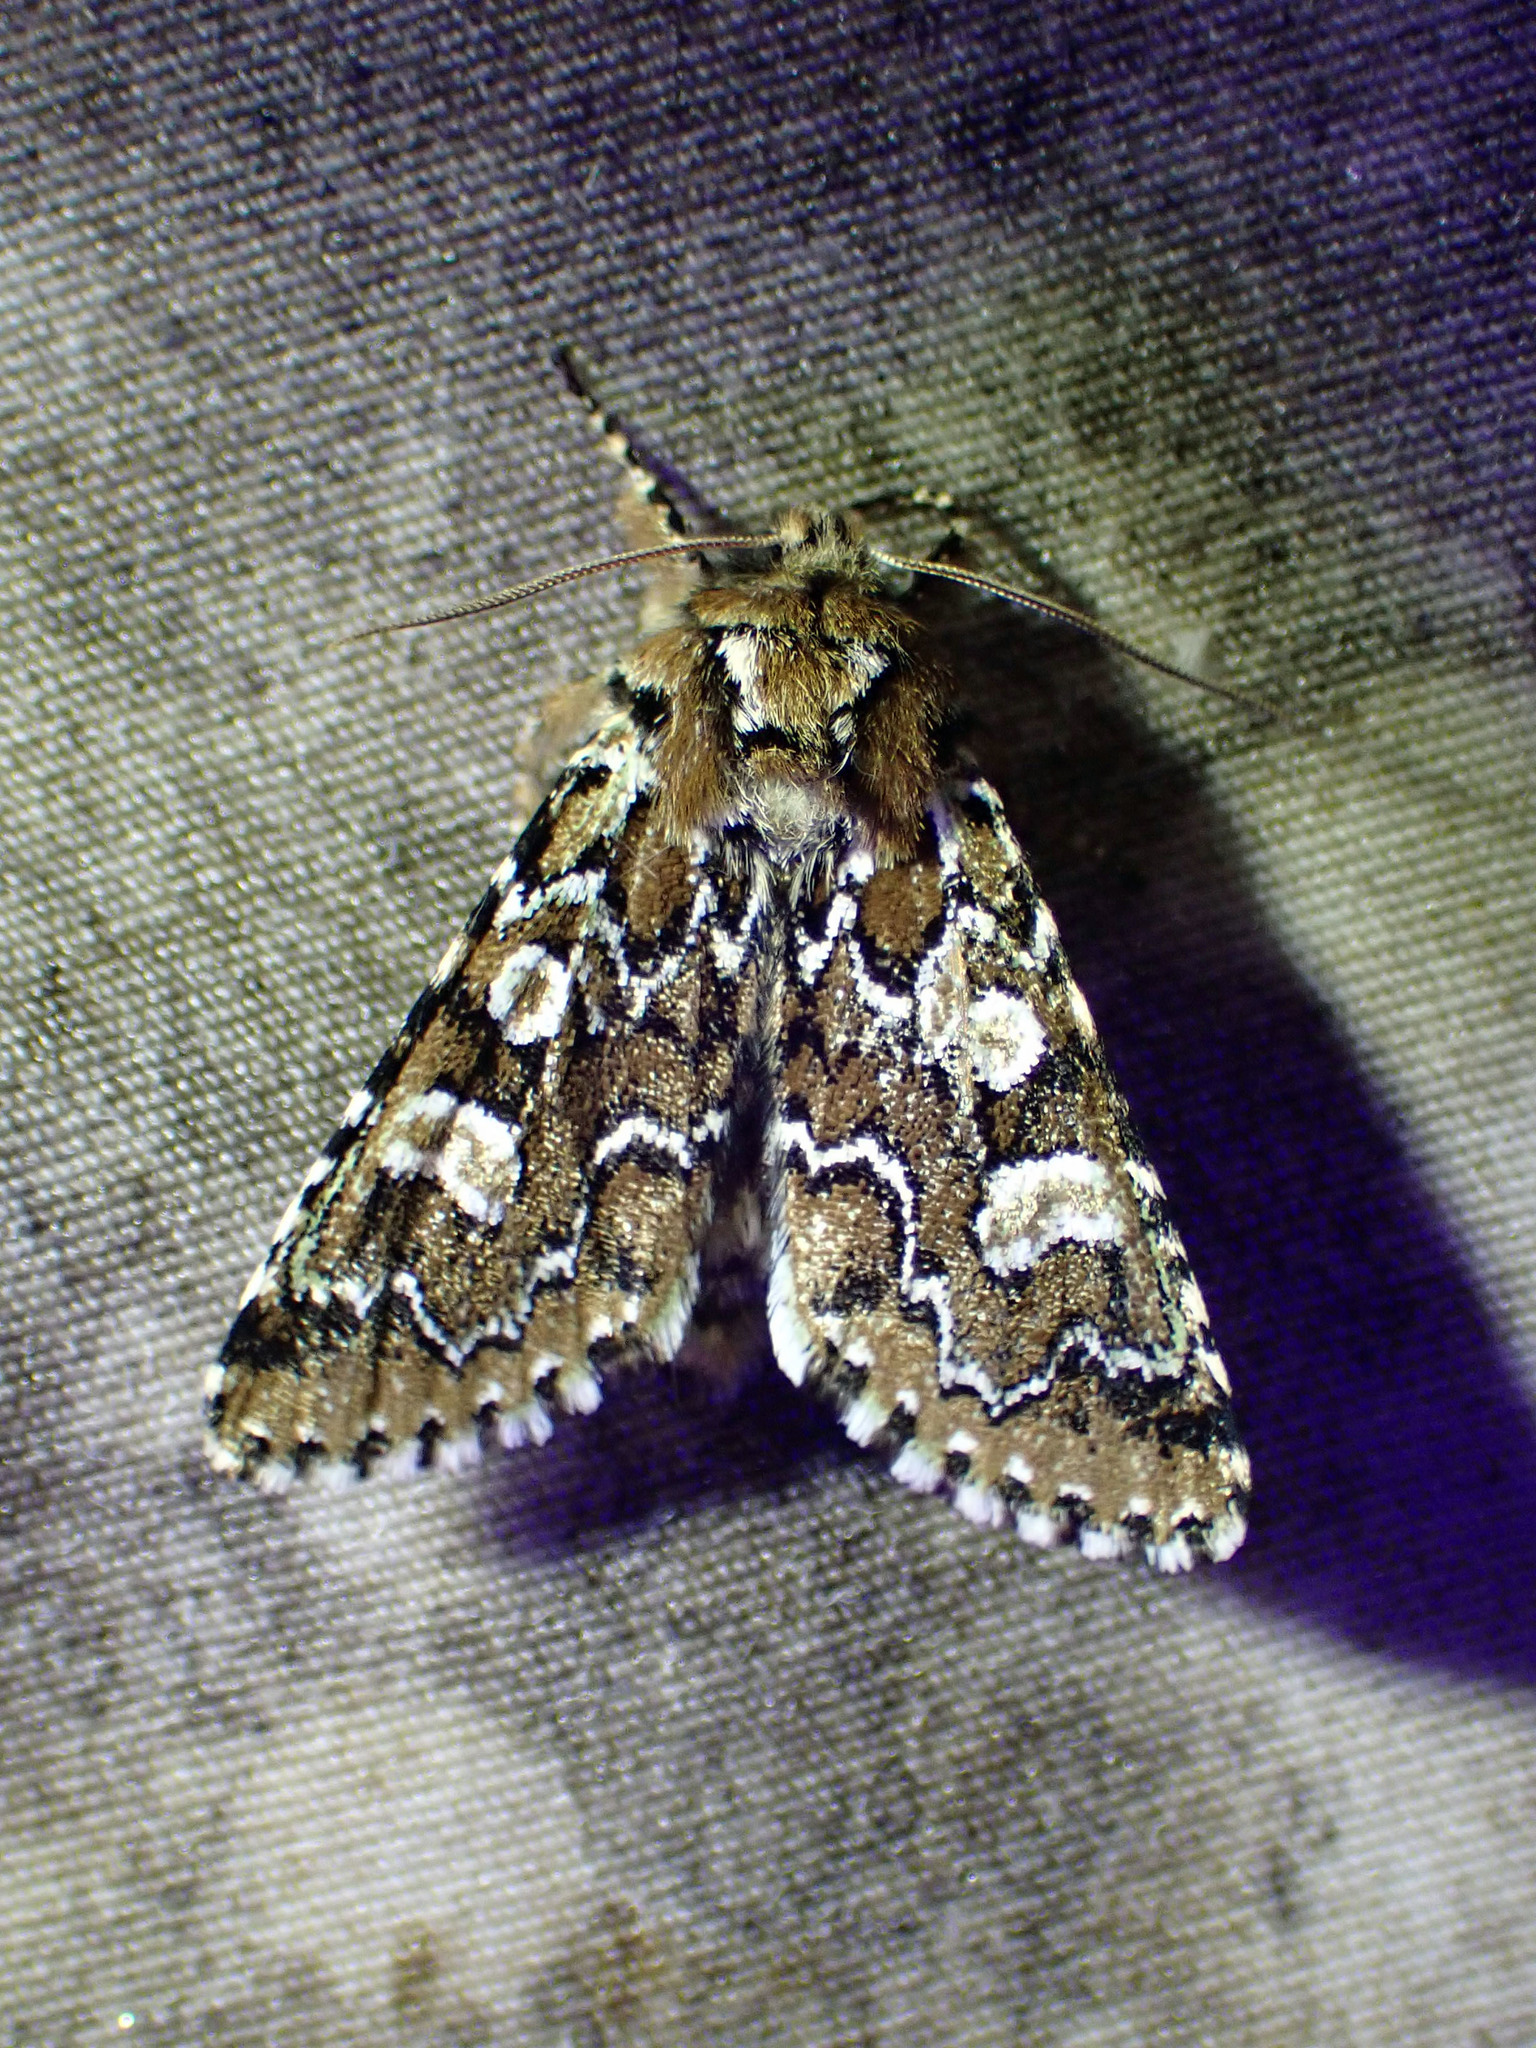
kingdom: Animalia
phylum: Arthropoda
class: Insecta
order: Lepidoptera
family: Noctuidae
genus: Feralia
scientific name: Feralia jocosa
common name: Joker
